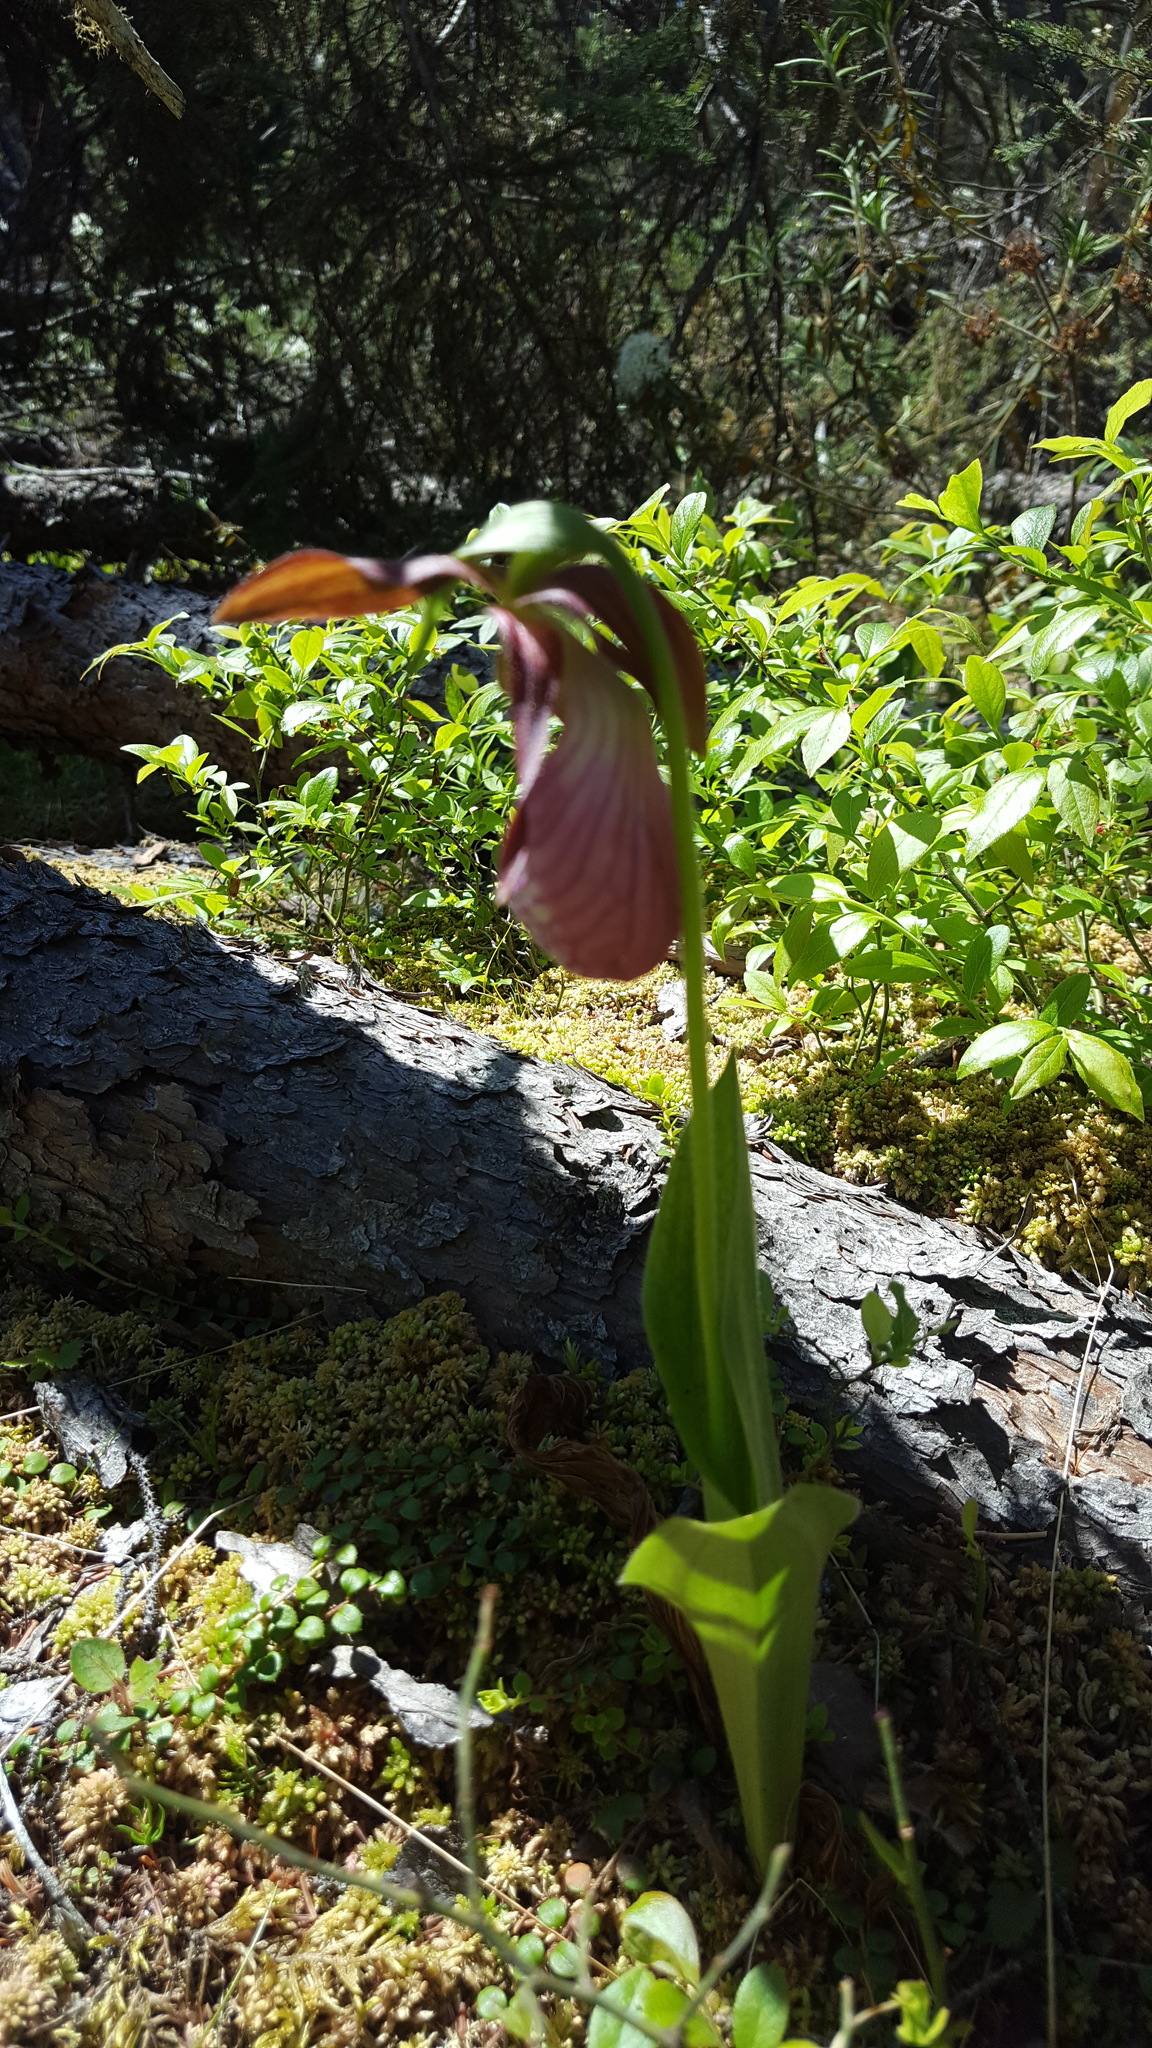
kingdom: Plantae
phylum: Tracheophyta
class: Liliopsida
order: Asparagales
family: Orchidaceae
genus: Cypripedium
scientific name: Cypripedium acaule
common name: Pink lady's-slipper
